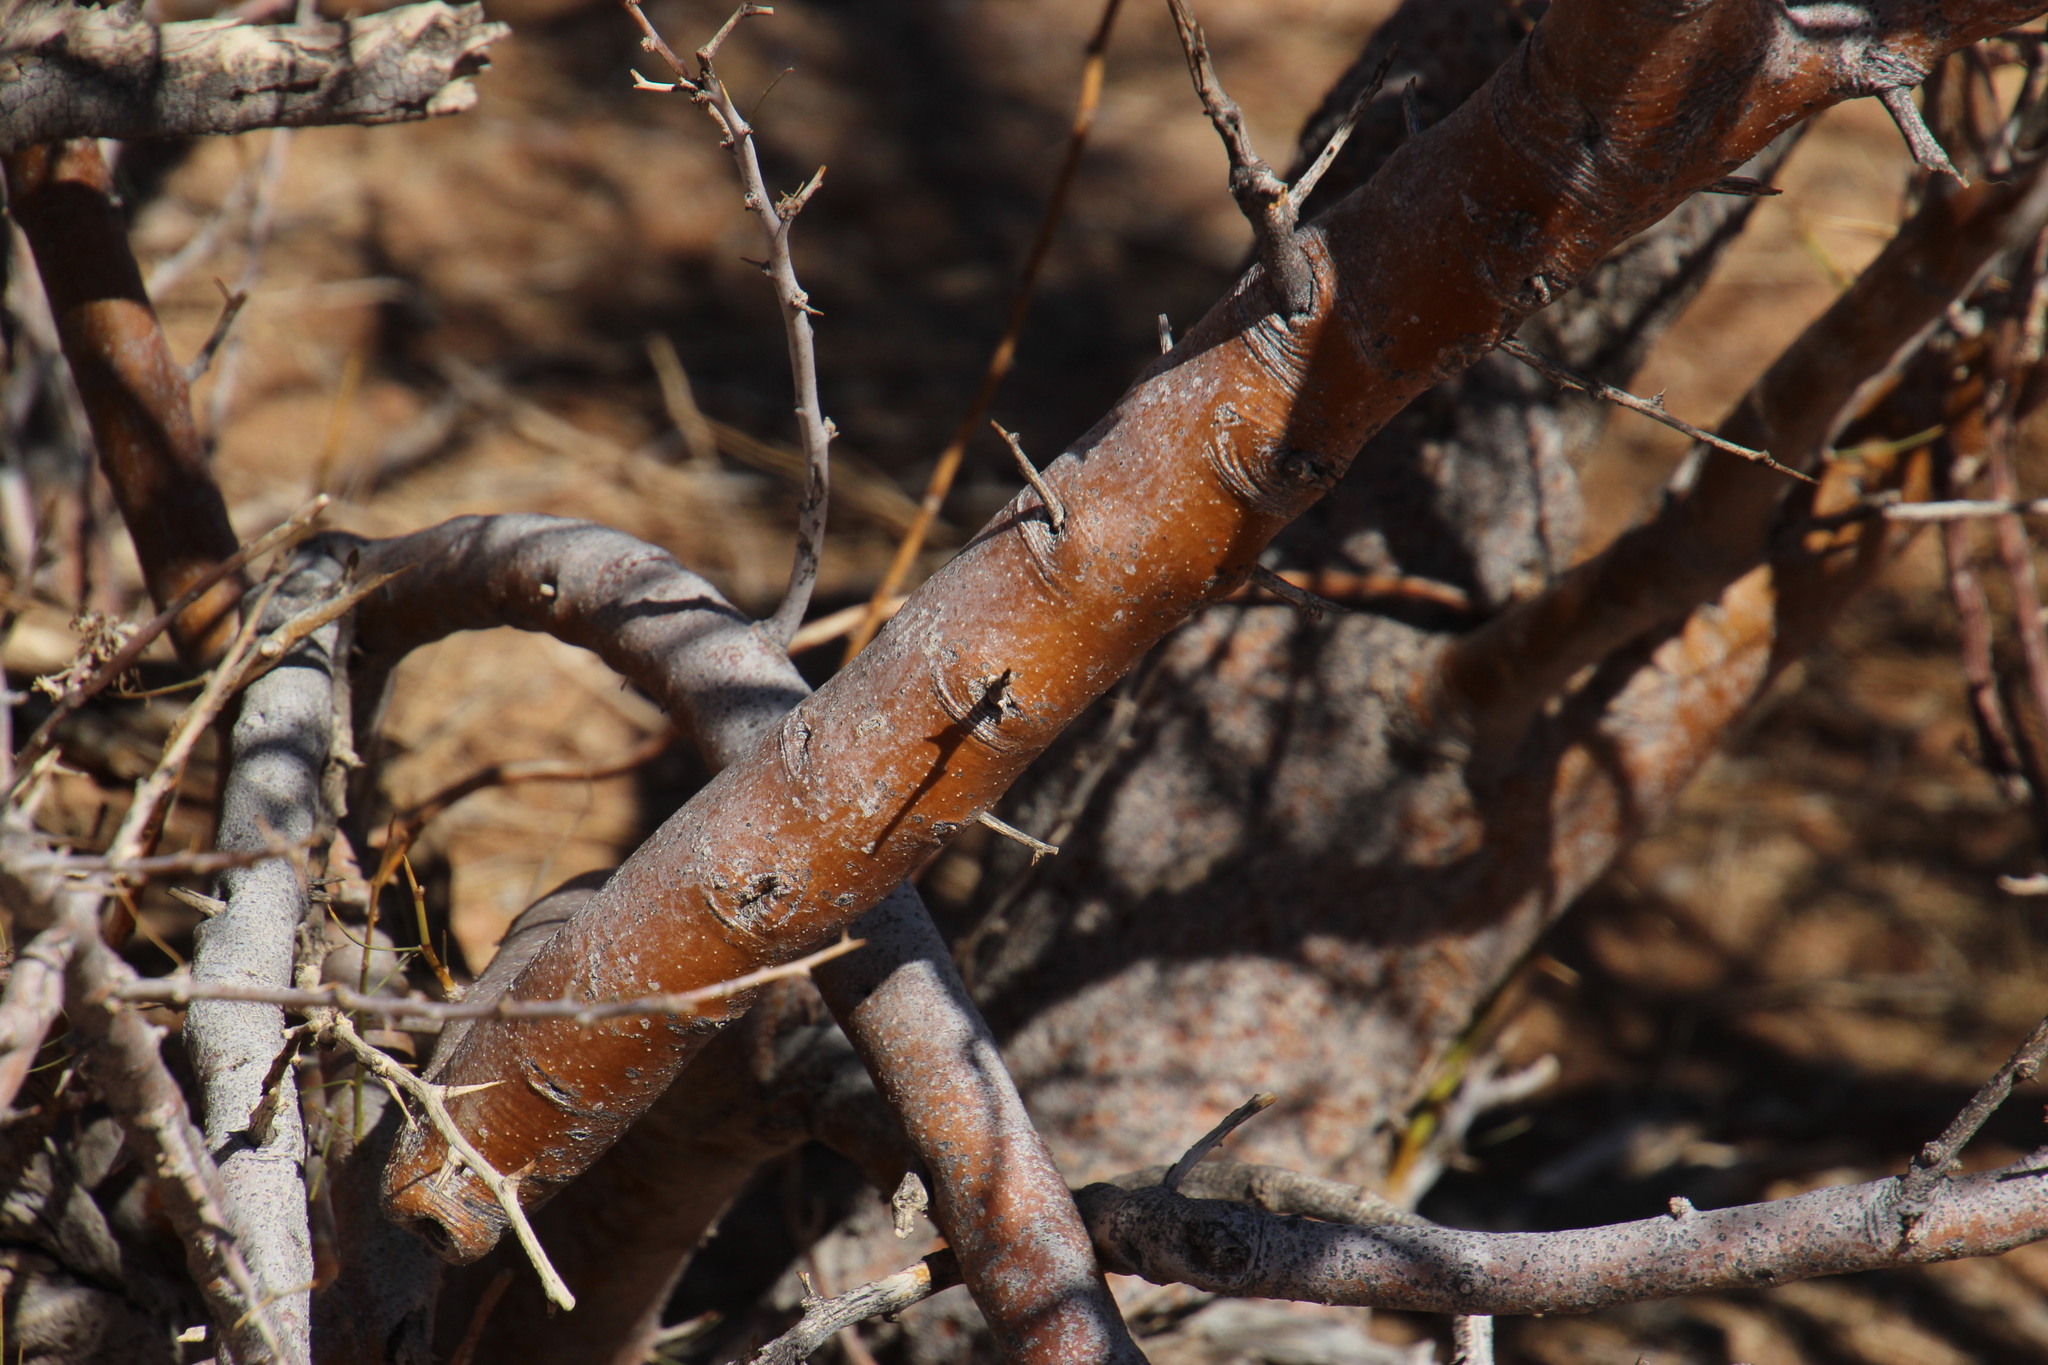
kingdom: Plantae
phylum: Tracheophyta
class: Magnoliopsida
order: Fabales
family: Fabaceae
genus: Parkinsonia
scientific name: Parkinsonia africana
